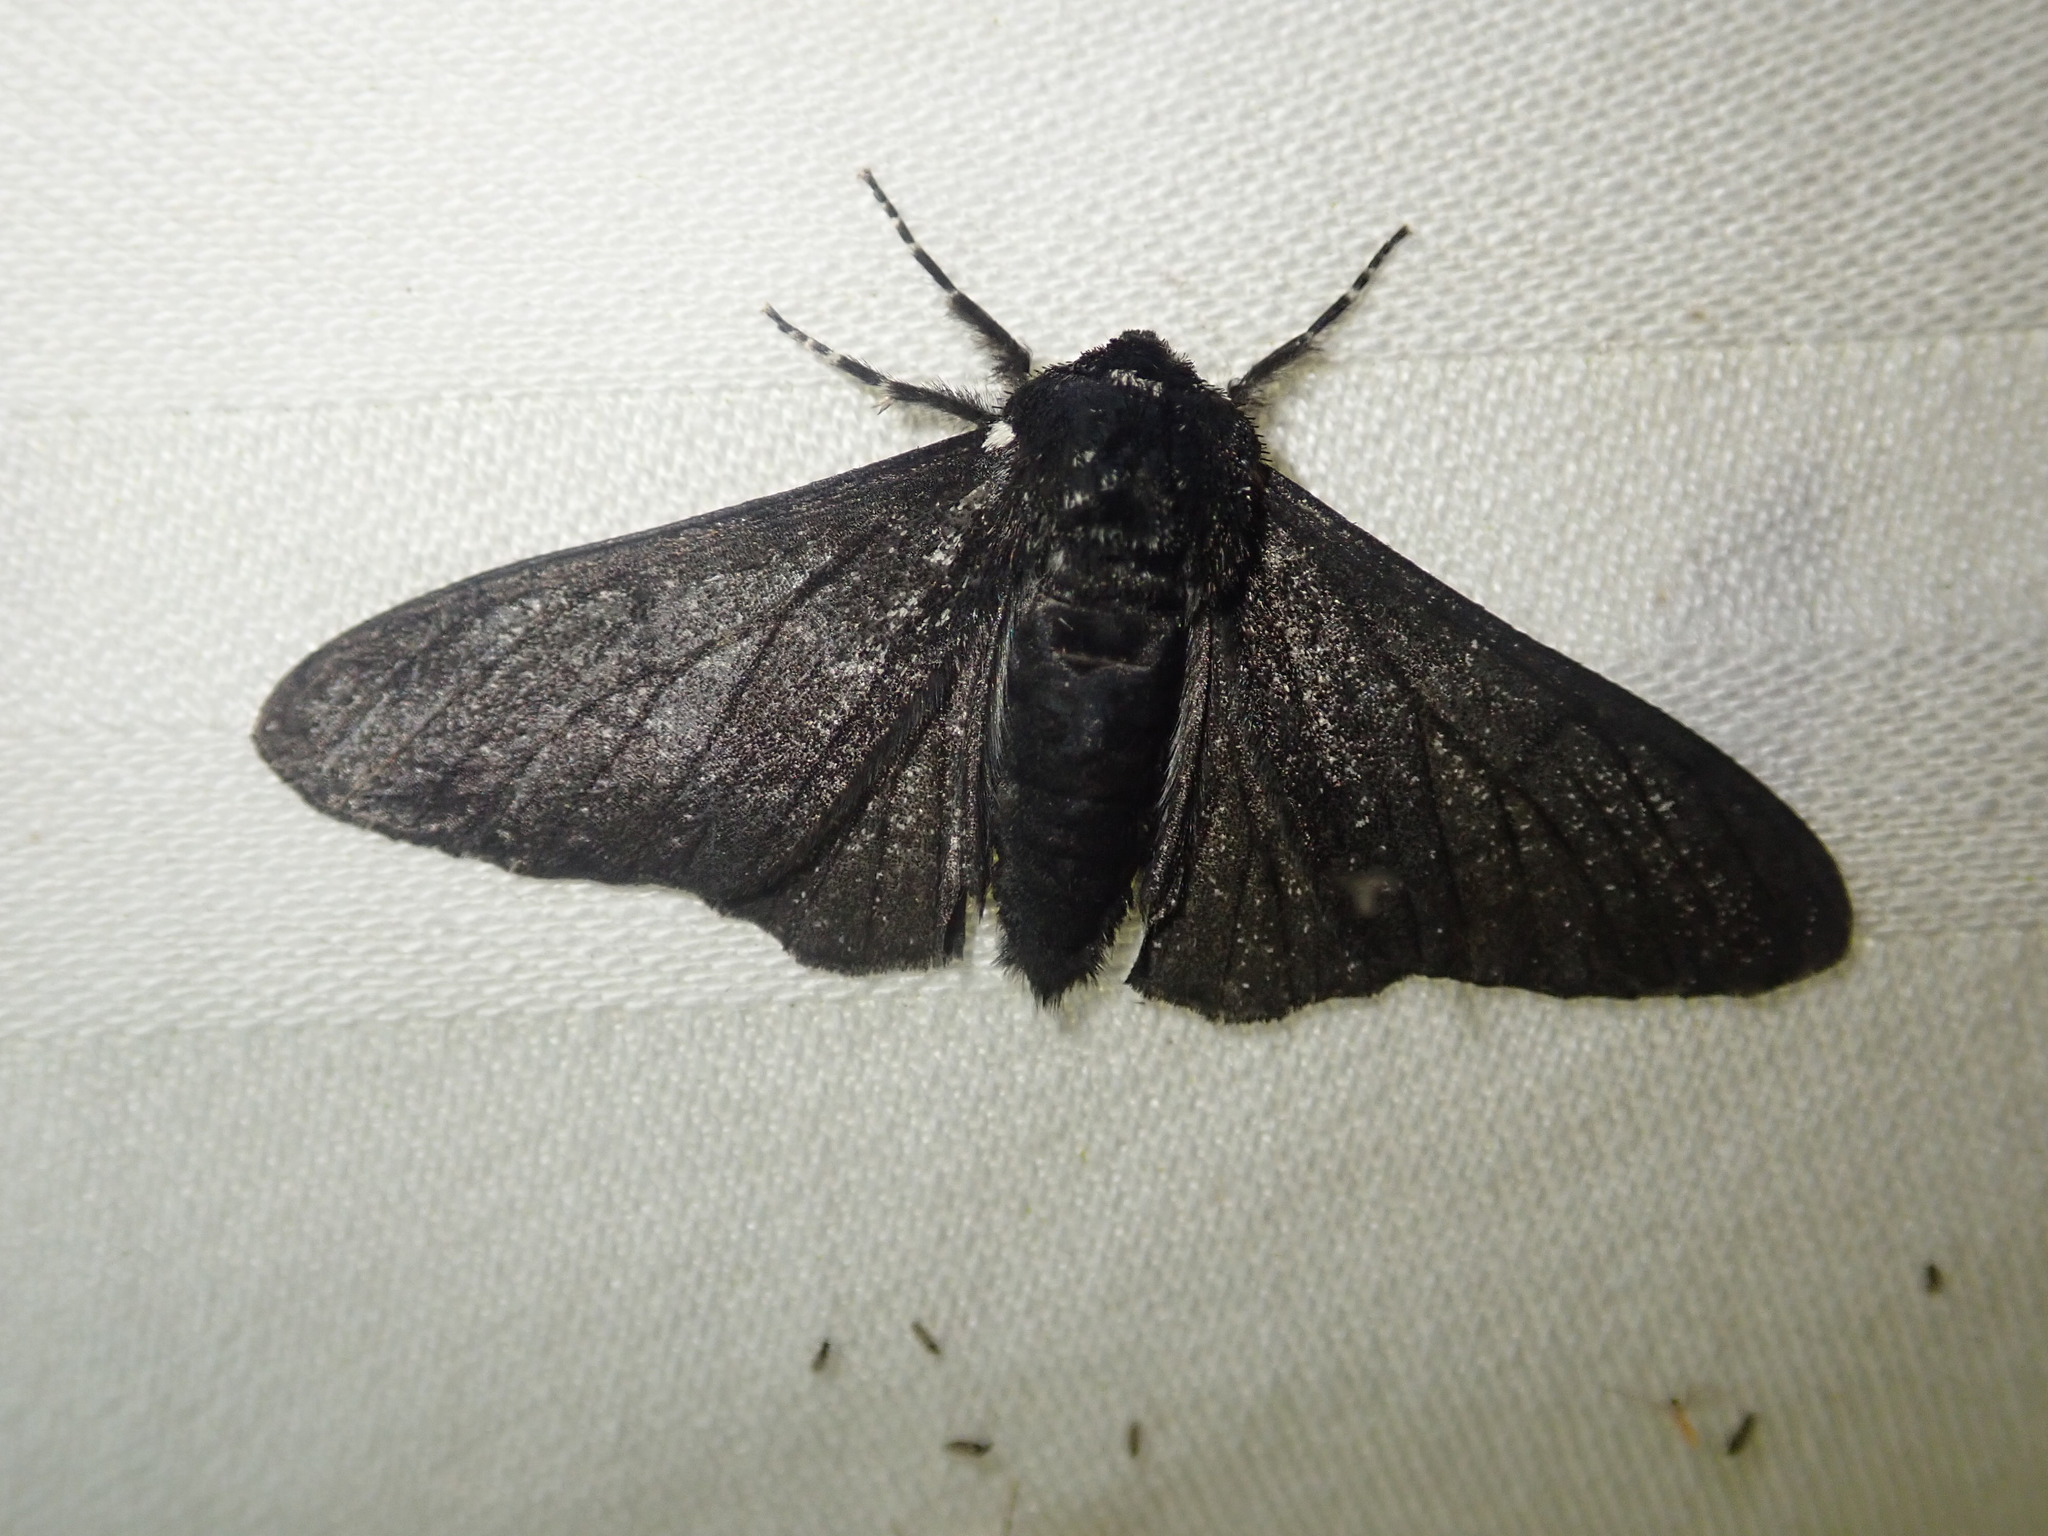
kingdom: Animalia
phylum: Arthropoda
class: Insecta
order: Lepidoptera
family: Geometridae
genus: Biston
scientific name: Biston betularia
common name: Peppered moth
